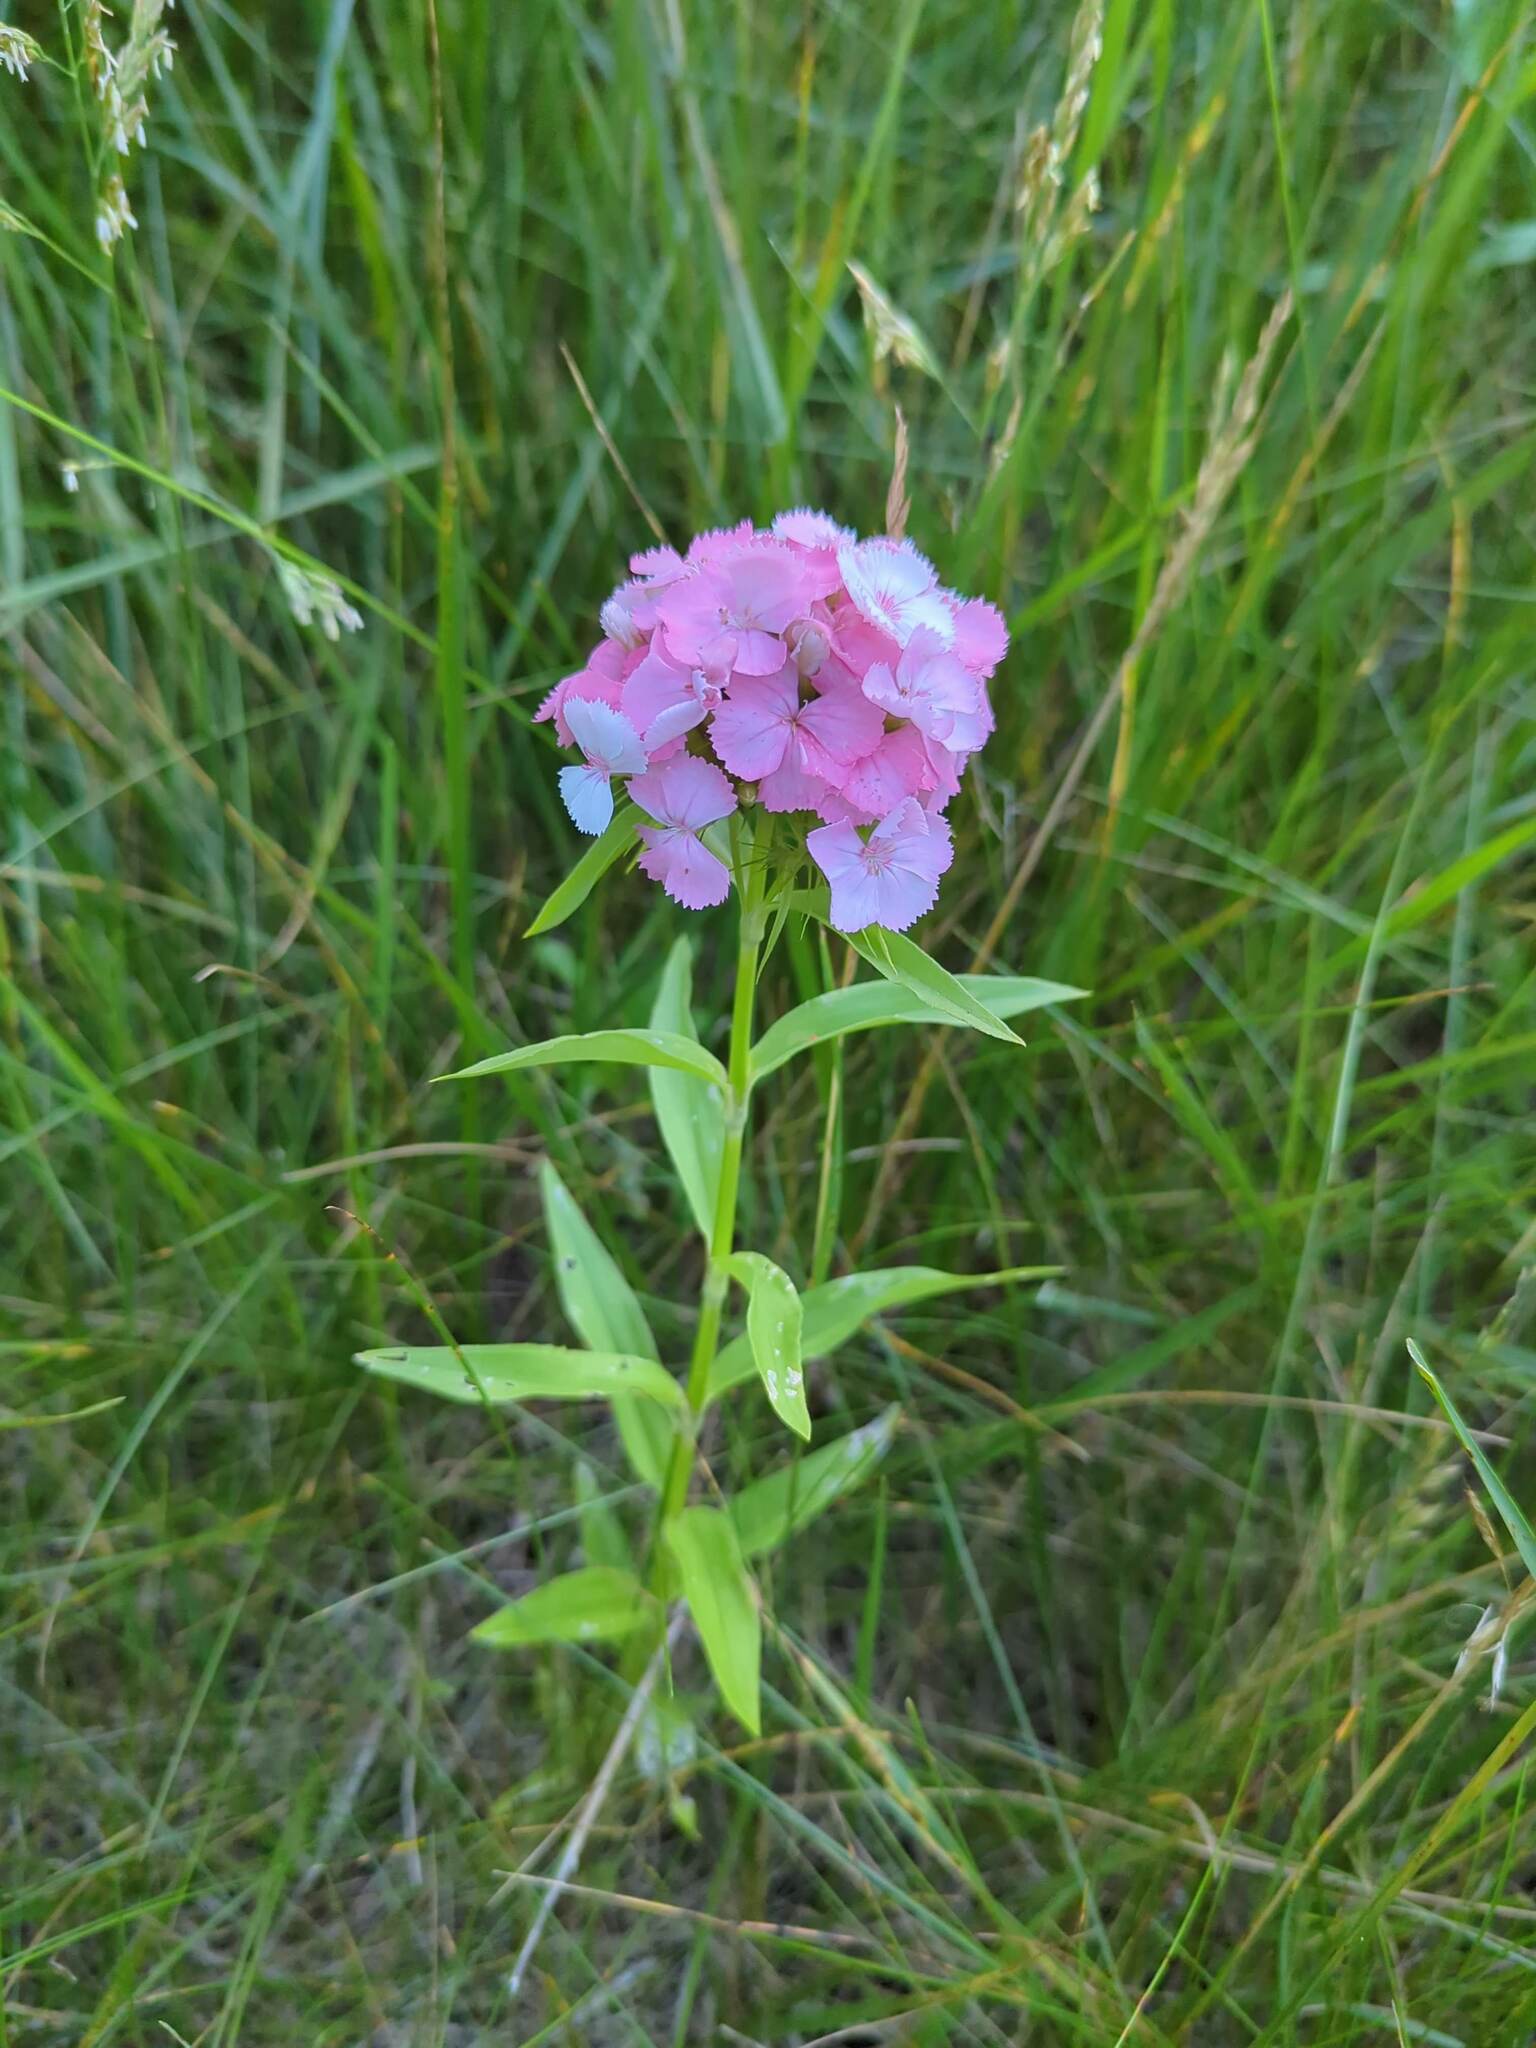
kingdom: Plantae
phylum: Tracheophyta
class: Magnoliopsida
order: Caryophyllales
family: Caryophyllaceae
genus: Dianthus
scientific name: Dianthus barbatus
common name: Sweet-william
